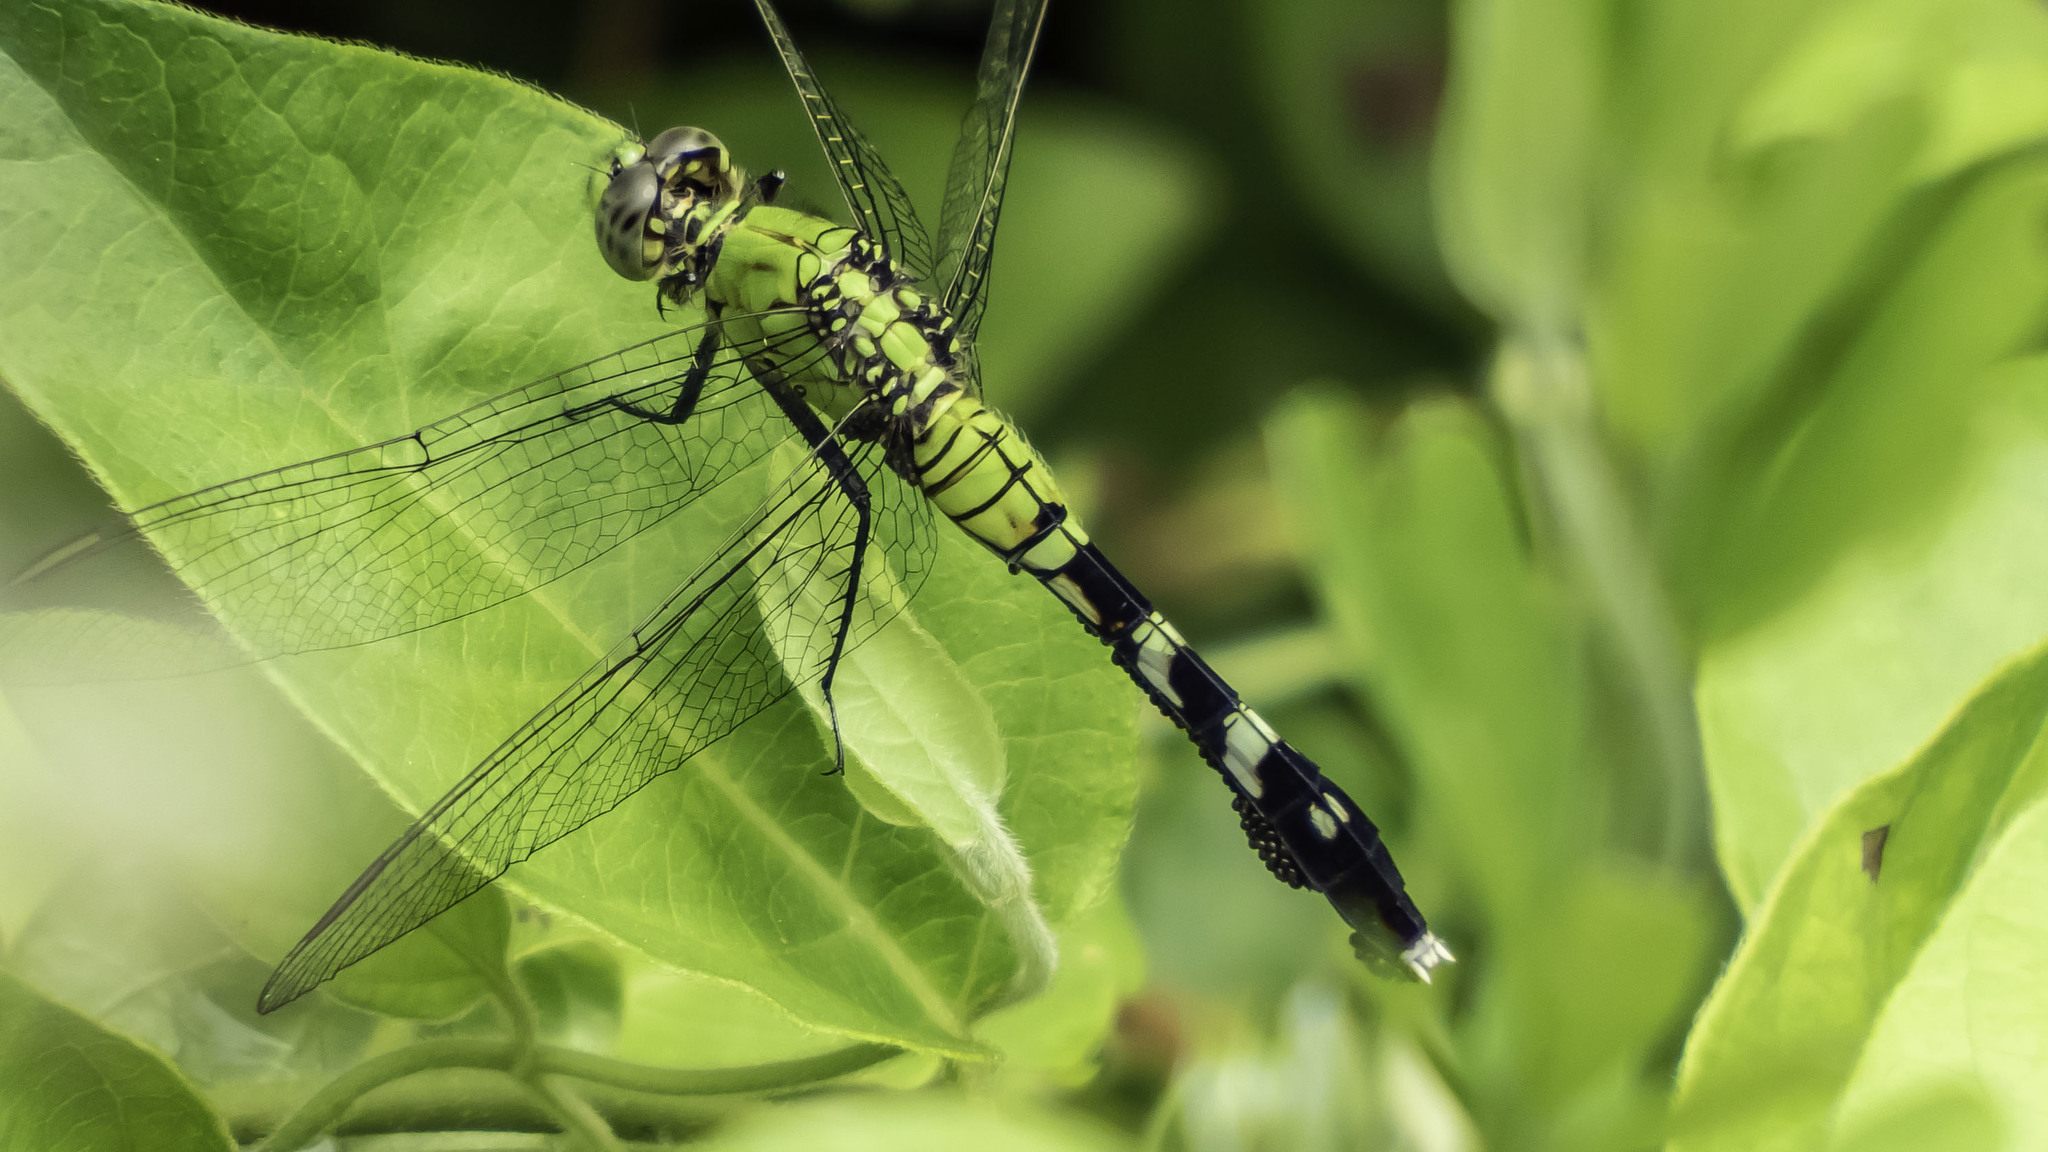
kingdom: Animalia
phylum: Arthropoda
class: Insecta
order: Odonata
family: Libellulidae
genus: Erythemis
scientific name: Erythemis simplicicollis
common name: Eastern pondhawk
